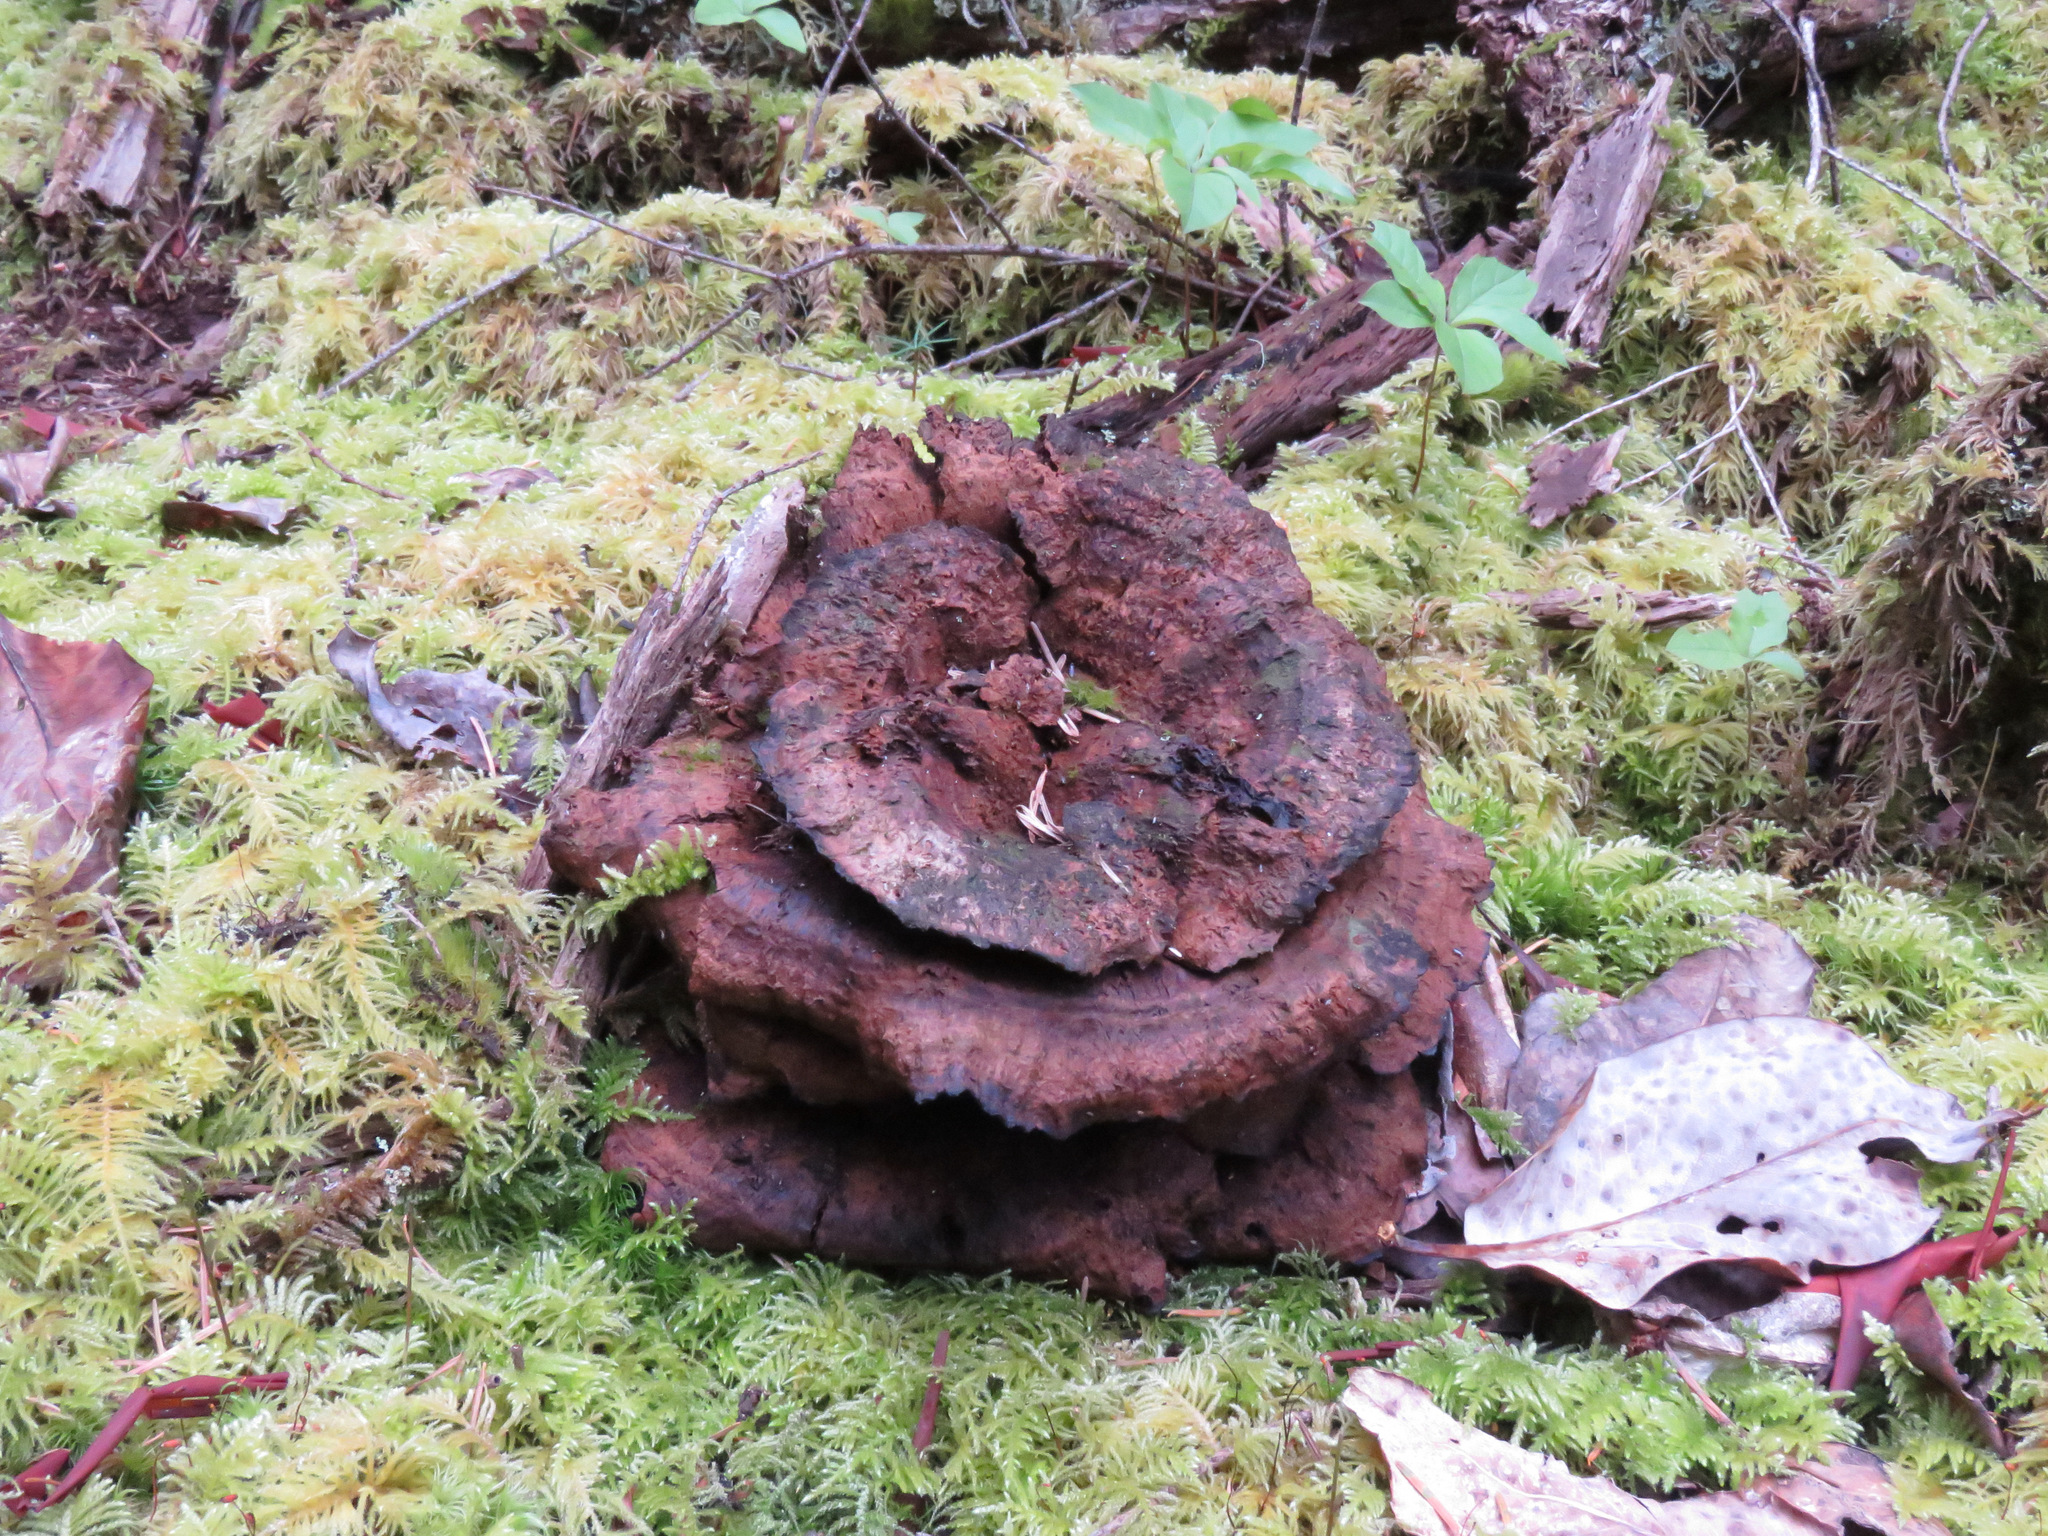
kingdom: Fungi
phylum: Basidiomycota
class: Agaricomycetes
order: Polyporales
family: Laetiporaceae
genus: Phaeolus
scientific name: Phaeolus schweinitzii
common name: Dyer's mazegill
